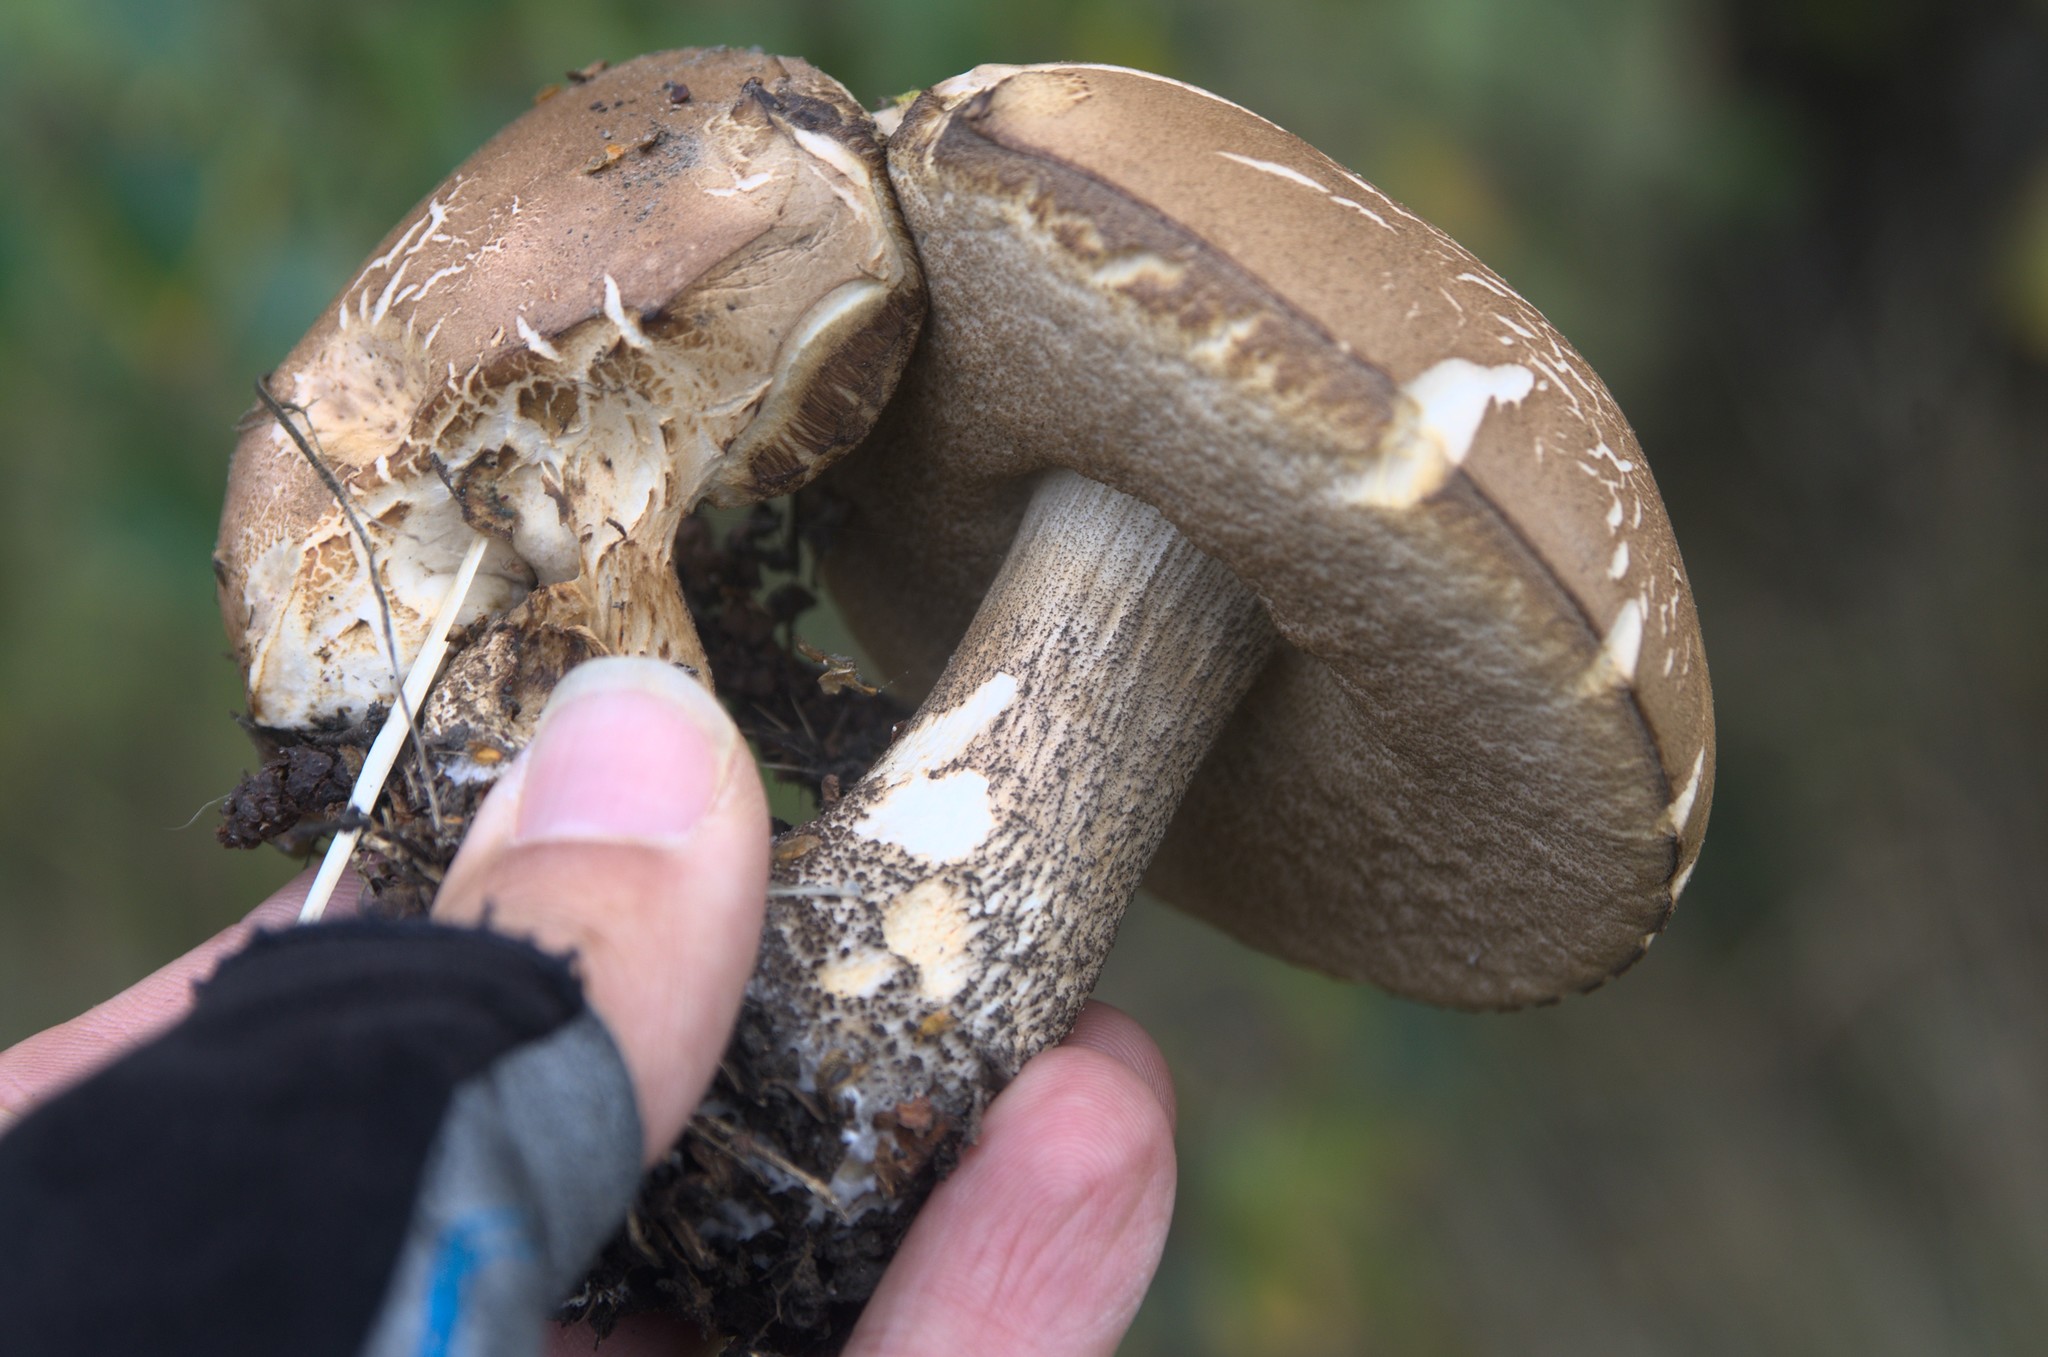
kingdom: Fungi
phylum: Basidiomycota
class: Agaricomycetes
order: Boletales
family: Boletaceae
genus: Leccinum
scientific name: Leccinum scabrum
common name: Blushing bolete
